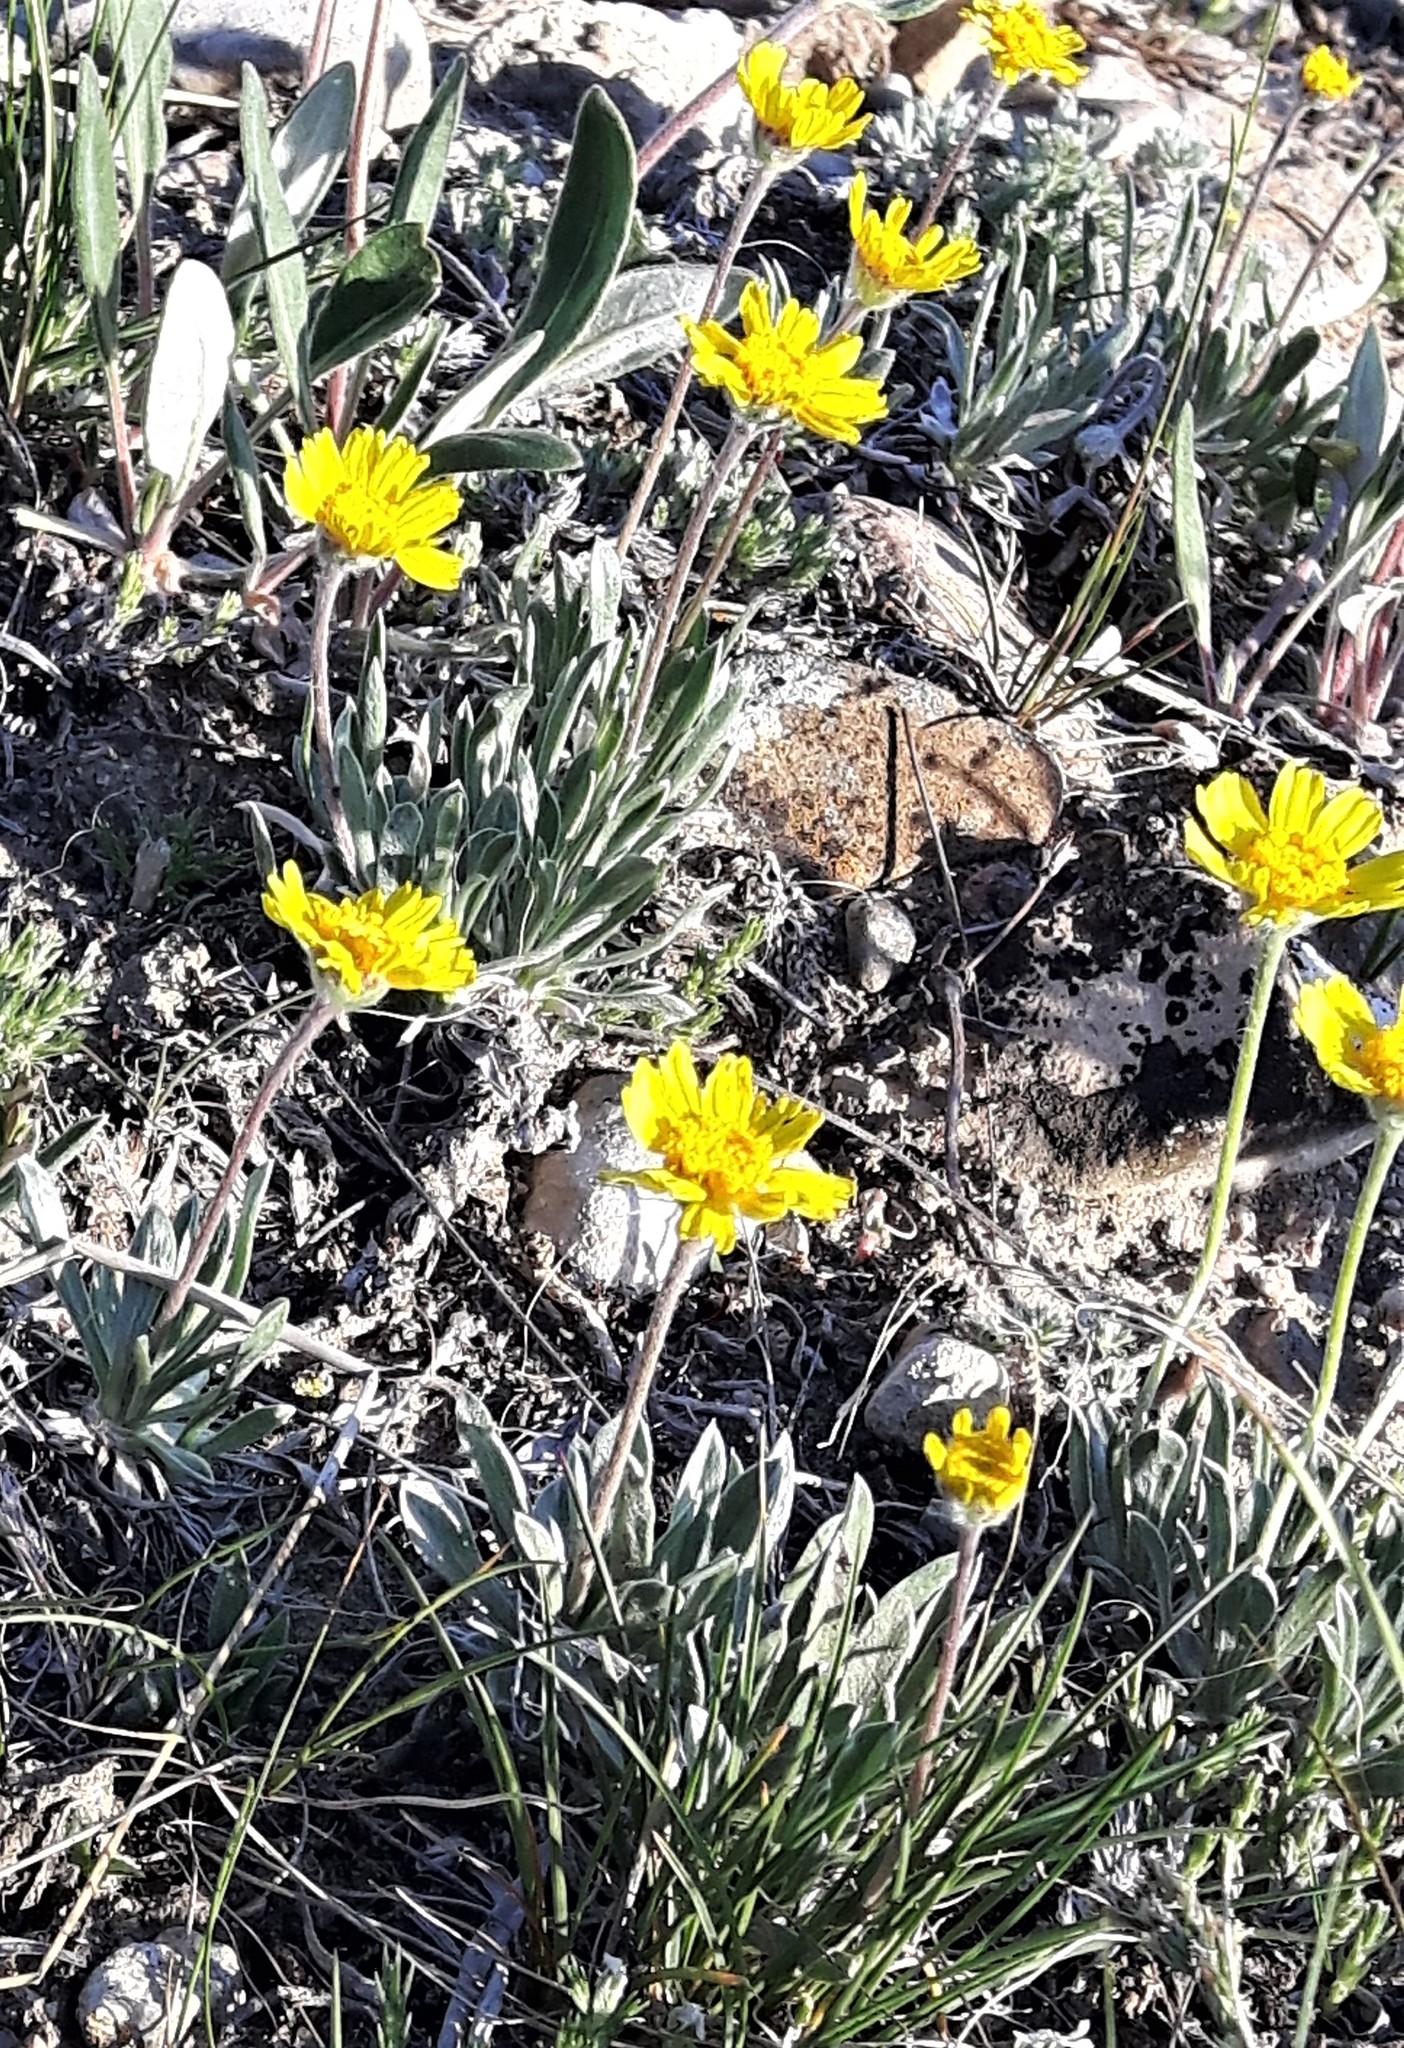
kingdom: Plantae
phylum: Tracheophyta
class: Magnoliopsida
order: Asterales
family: Asteraceae
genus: Tetraneuris
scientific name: Tetraneuris acaulis
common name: Butte marigold
